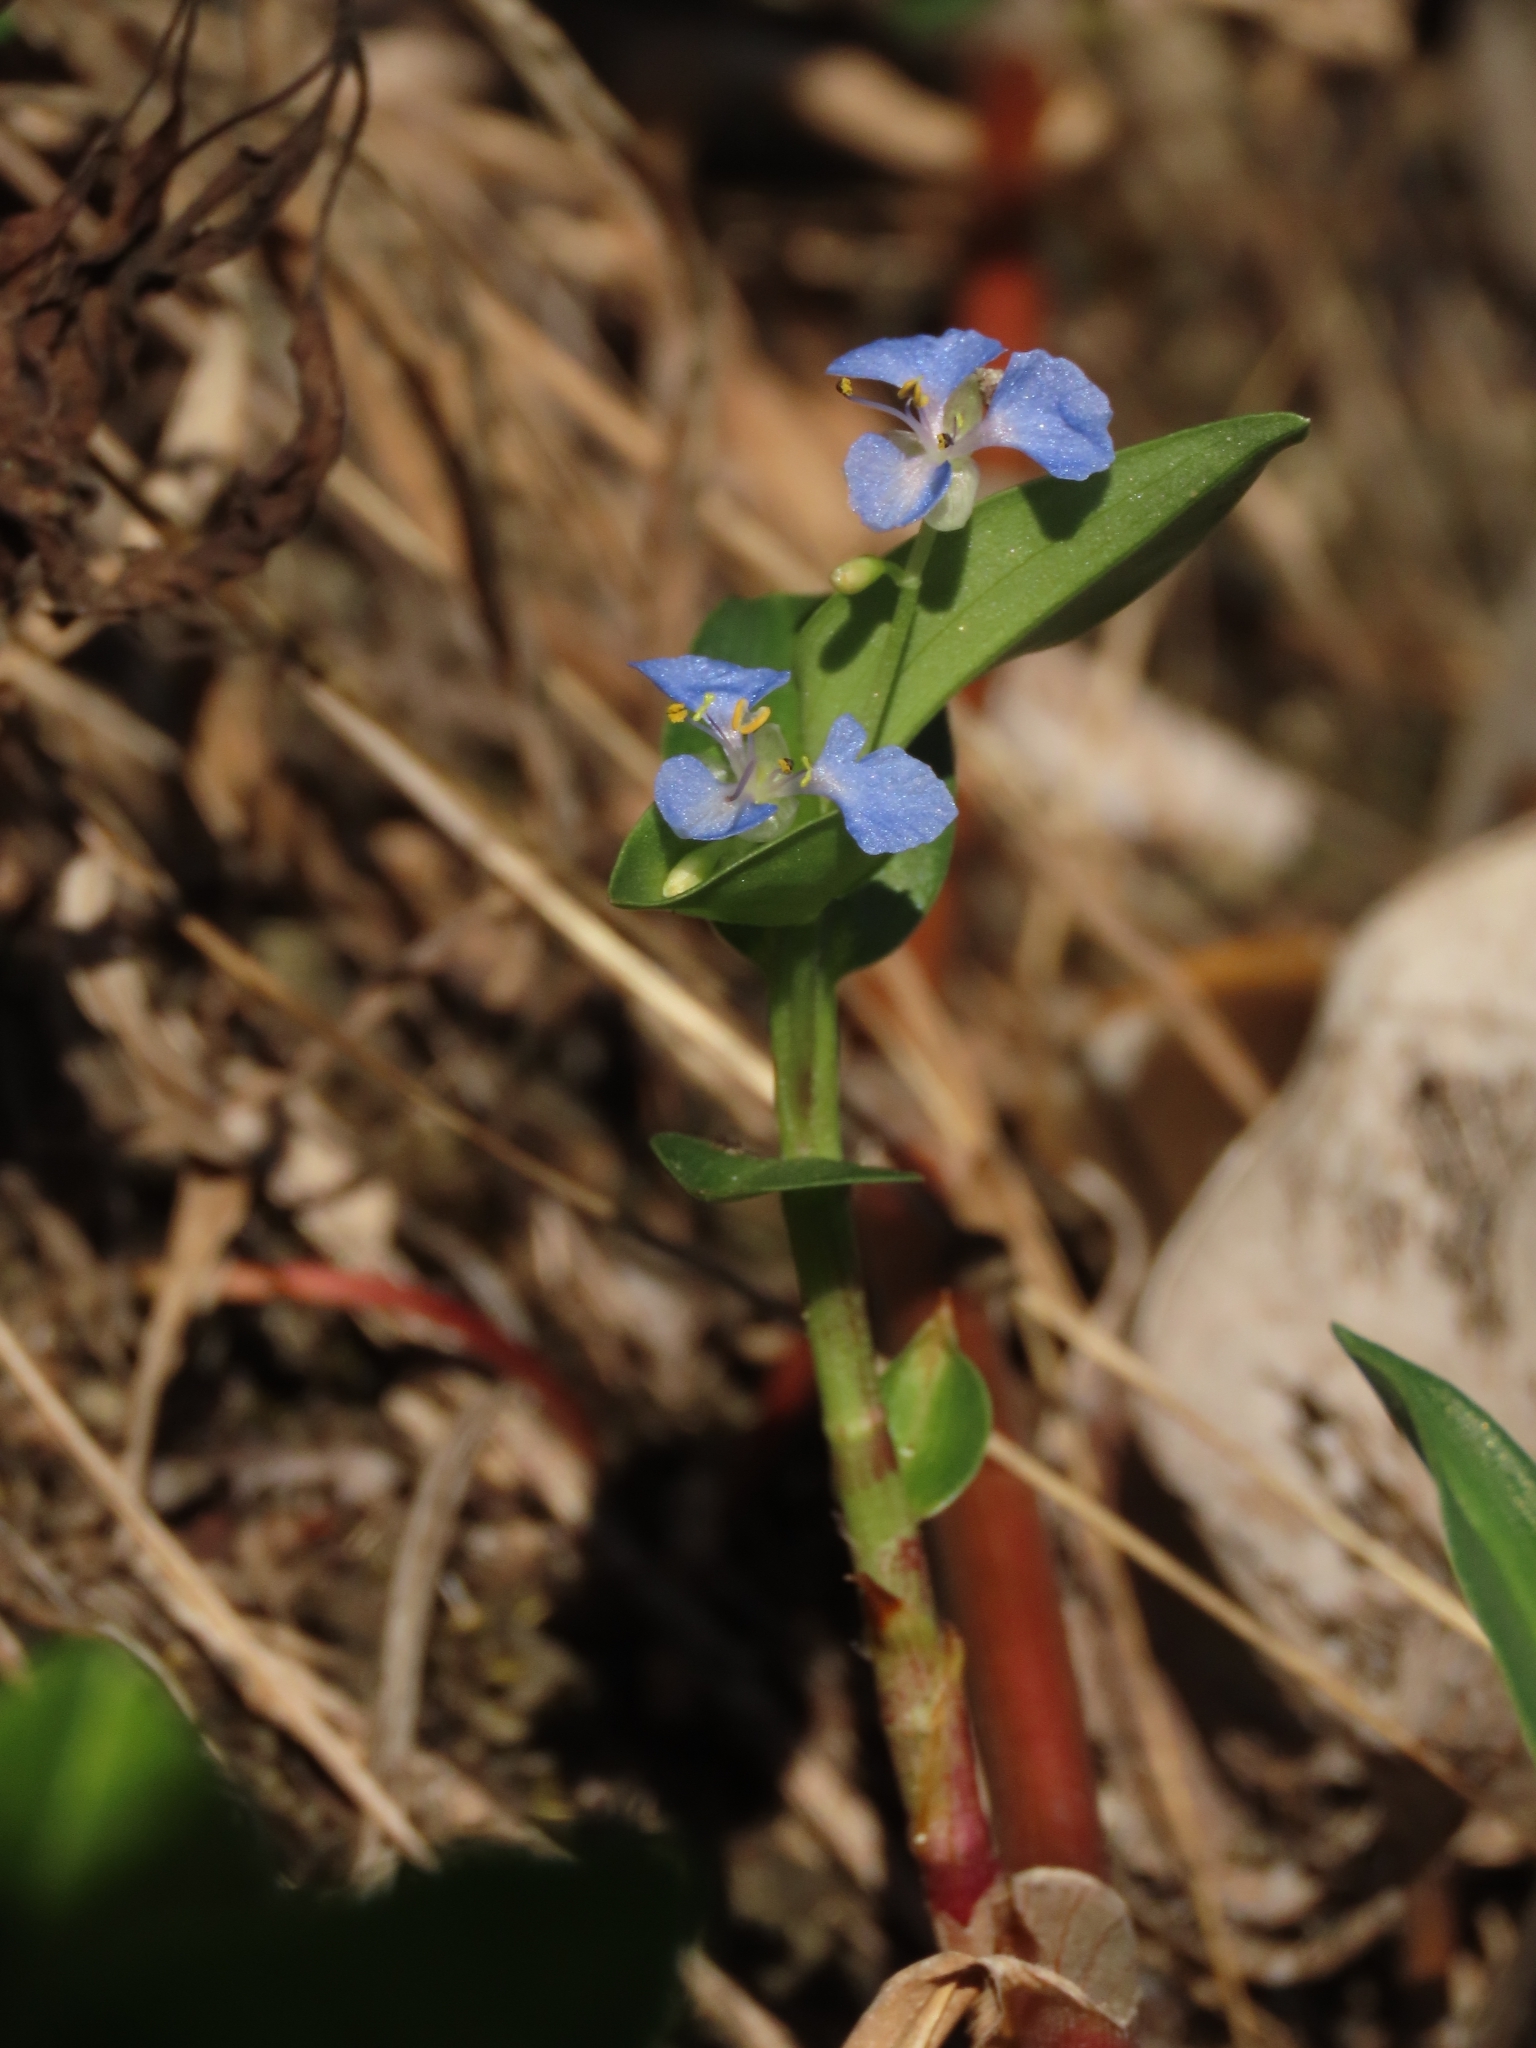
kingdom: Plantae
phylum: Tracheophyta
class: Liliopsida
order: Commelinales
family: Commelinaceae
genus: Commelina
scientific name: Commelina diffusa
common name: Climbing dayflower
